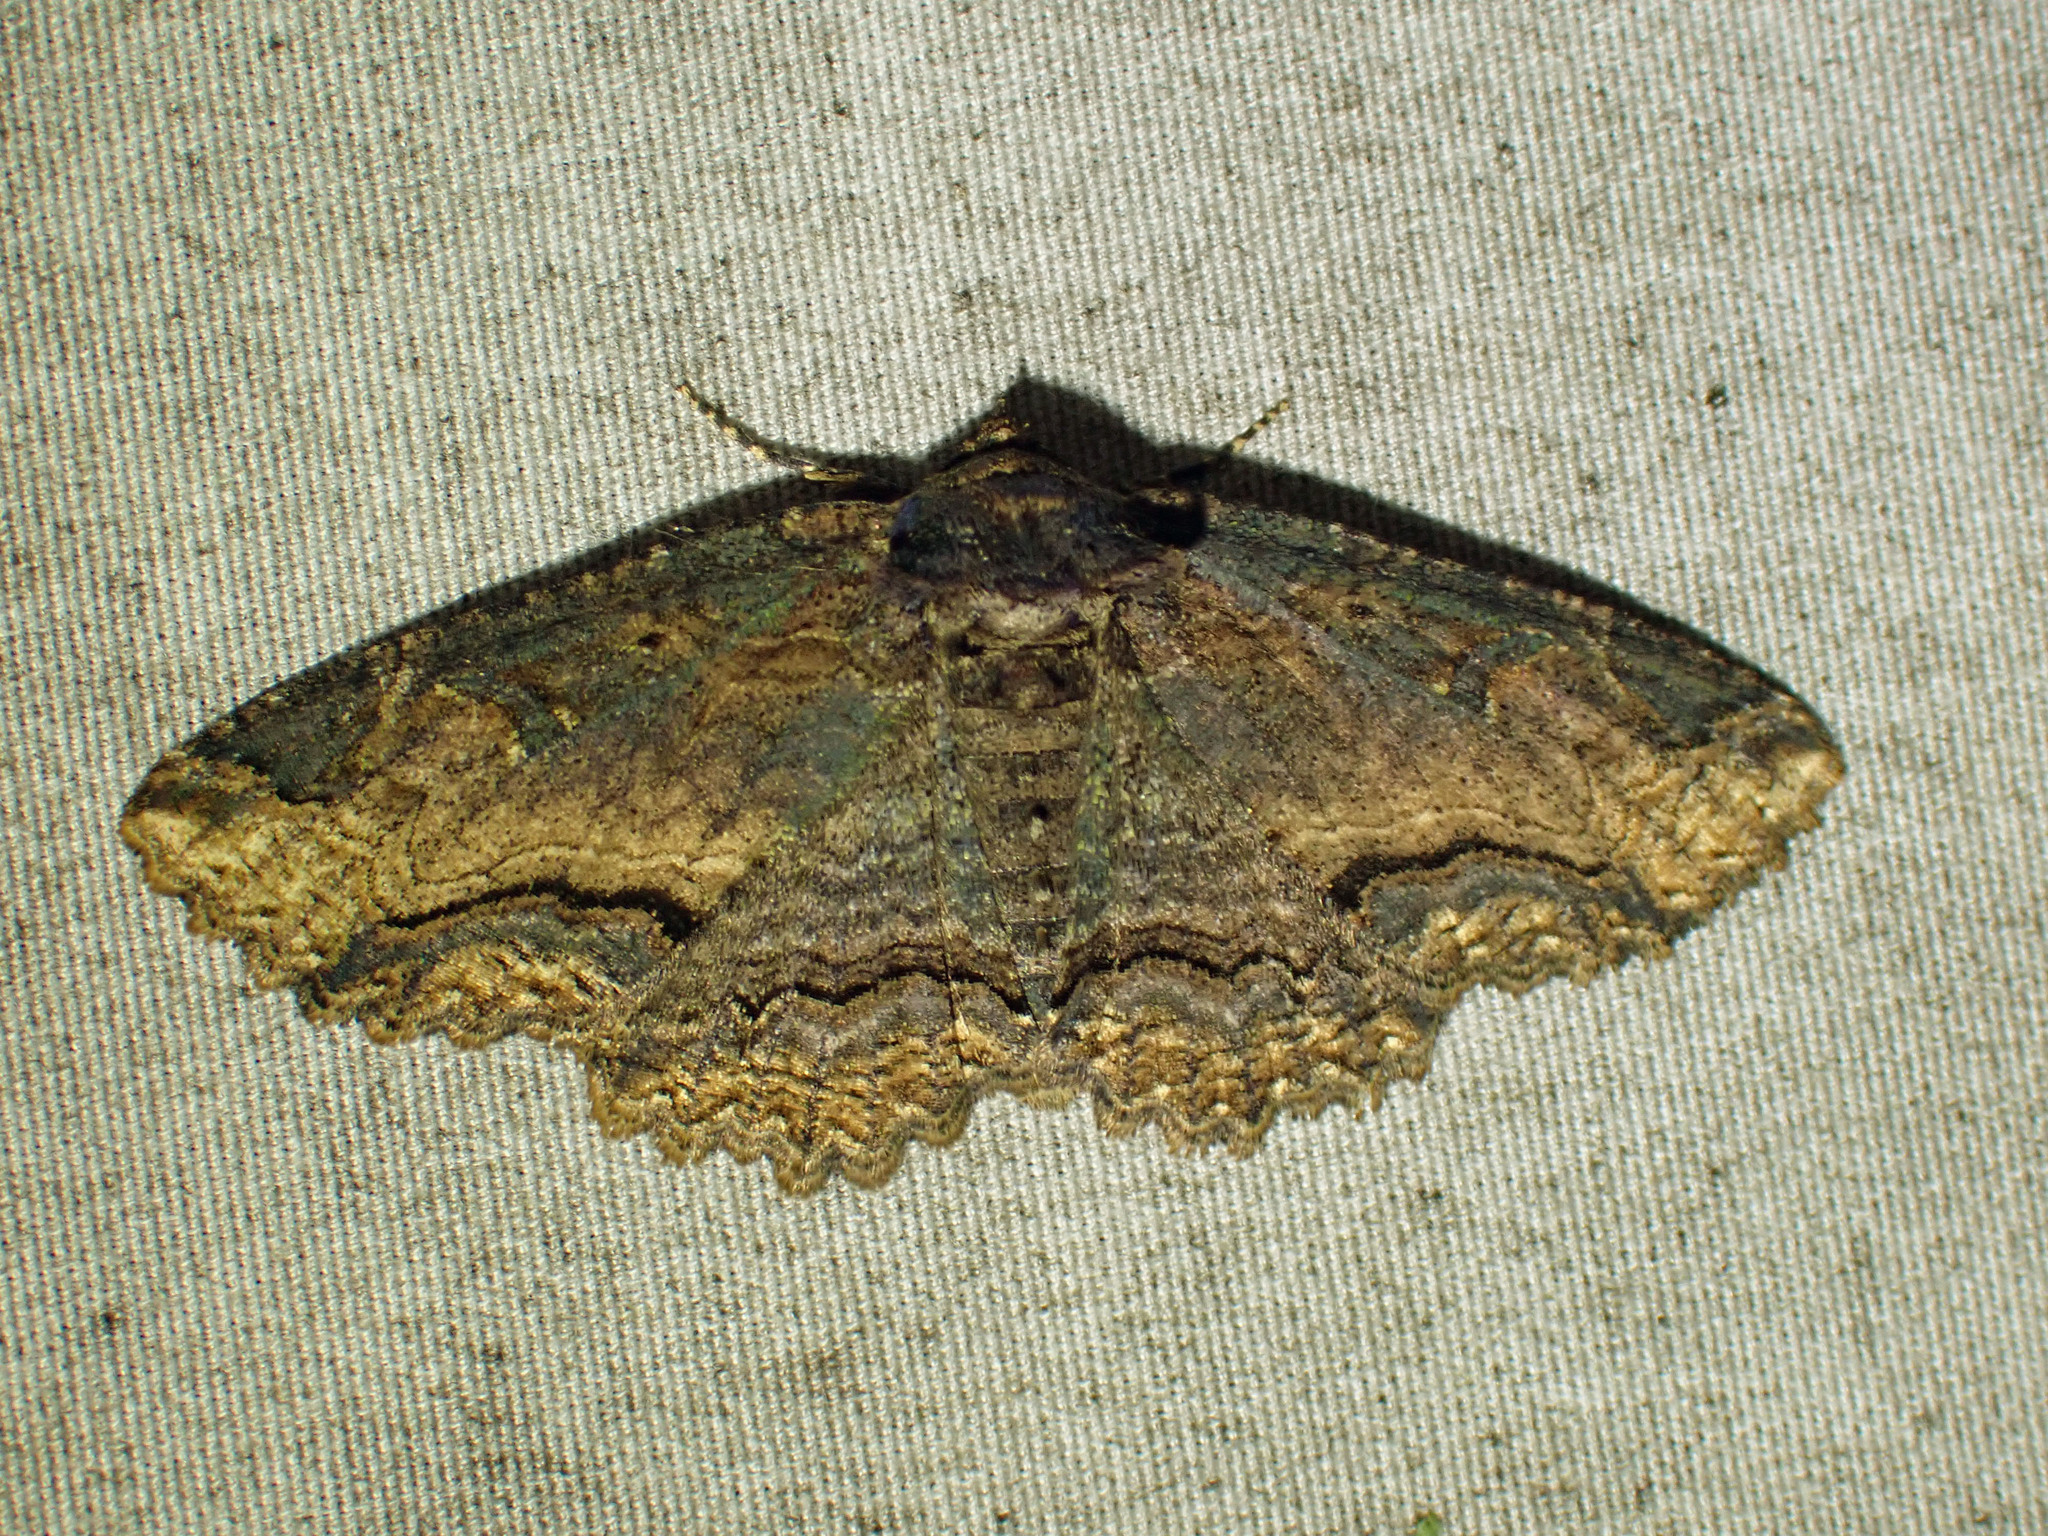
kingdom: Animalia
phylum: Arthropoda
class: Insecta
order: Lepidoptera
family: Erebidae
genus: Zale
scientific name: Zale minerea
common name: Colorful zale moth
